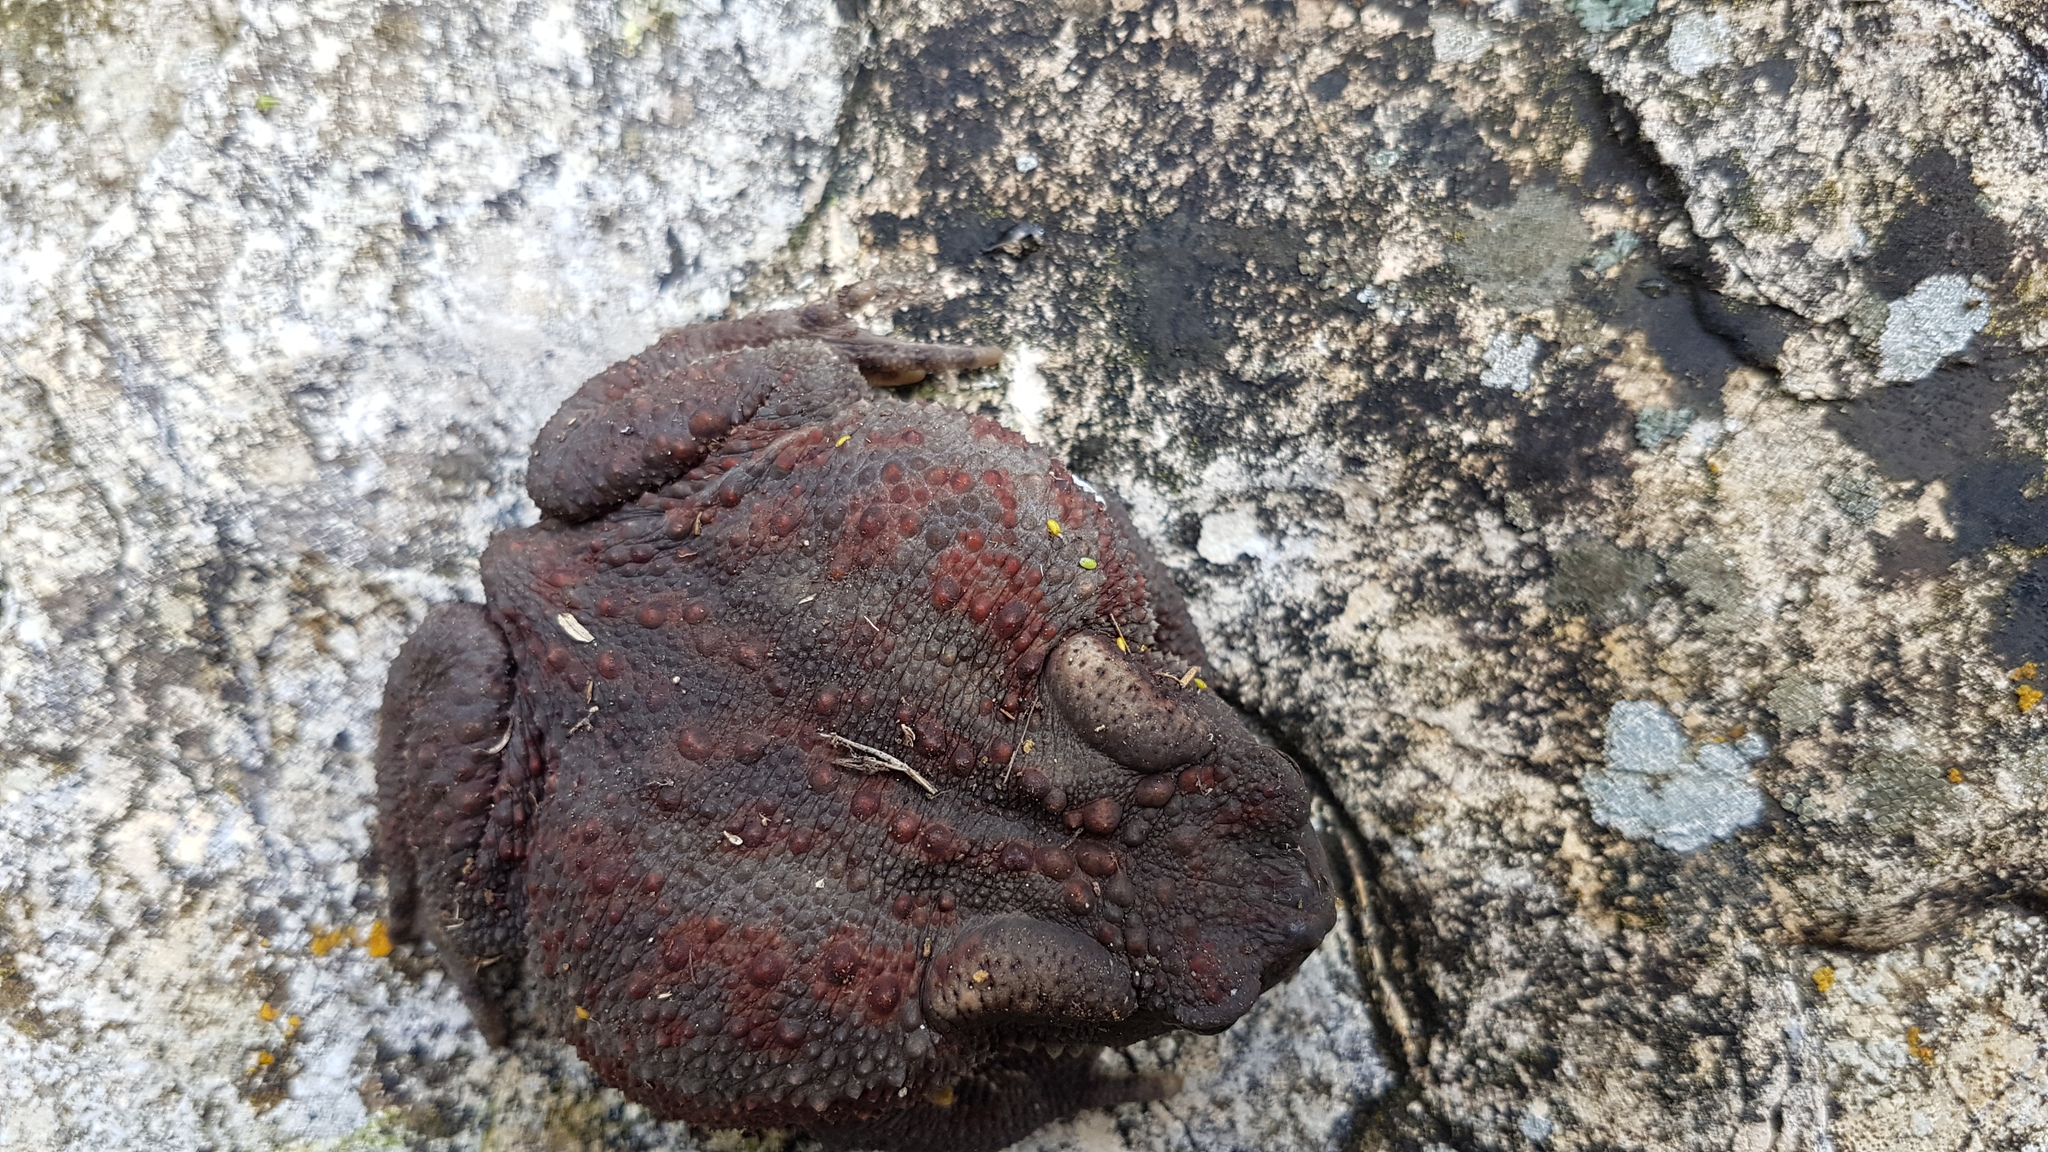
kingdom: Animalia
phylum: Chordata
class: Amphibia
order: Anura
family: Bufonidae
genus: Bufo
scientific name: Bufo bufo
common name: Common toad
